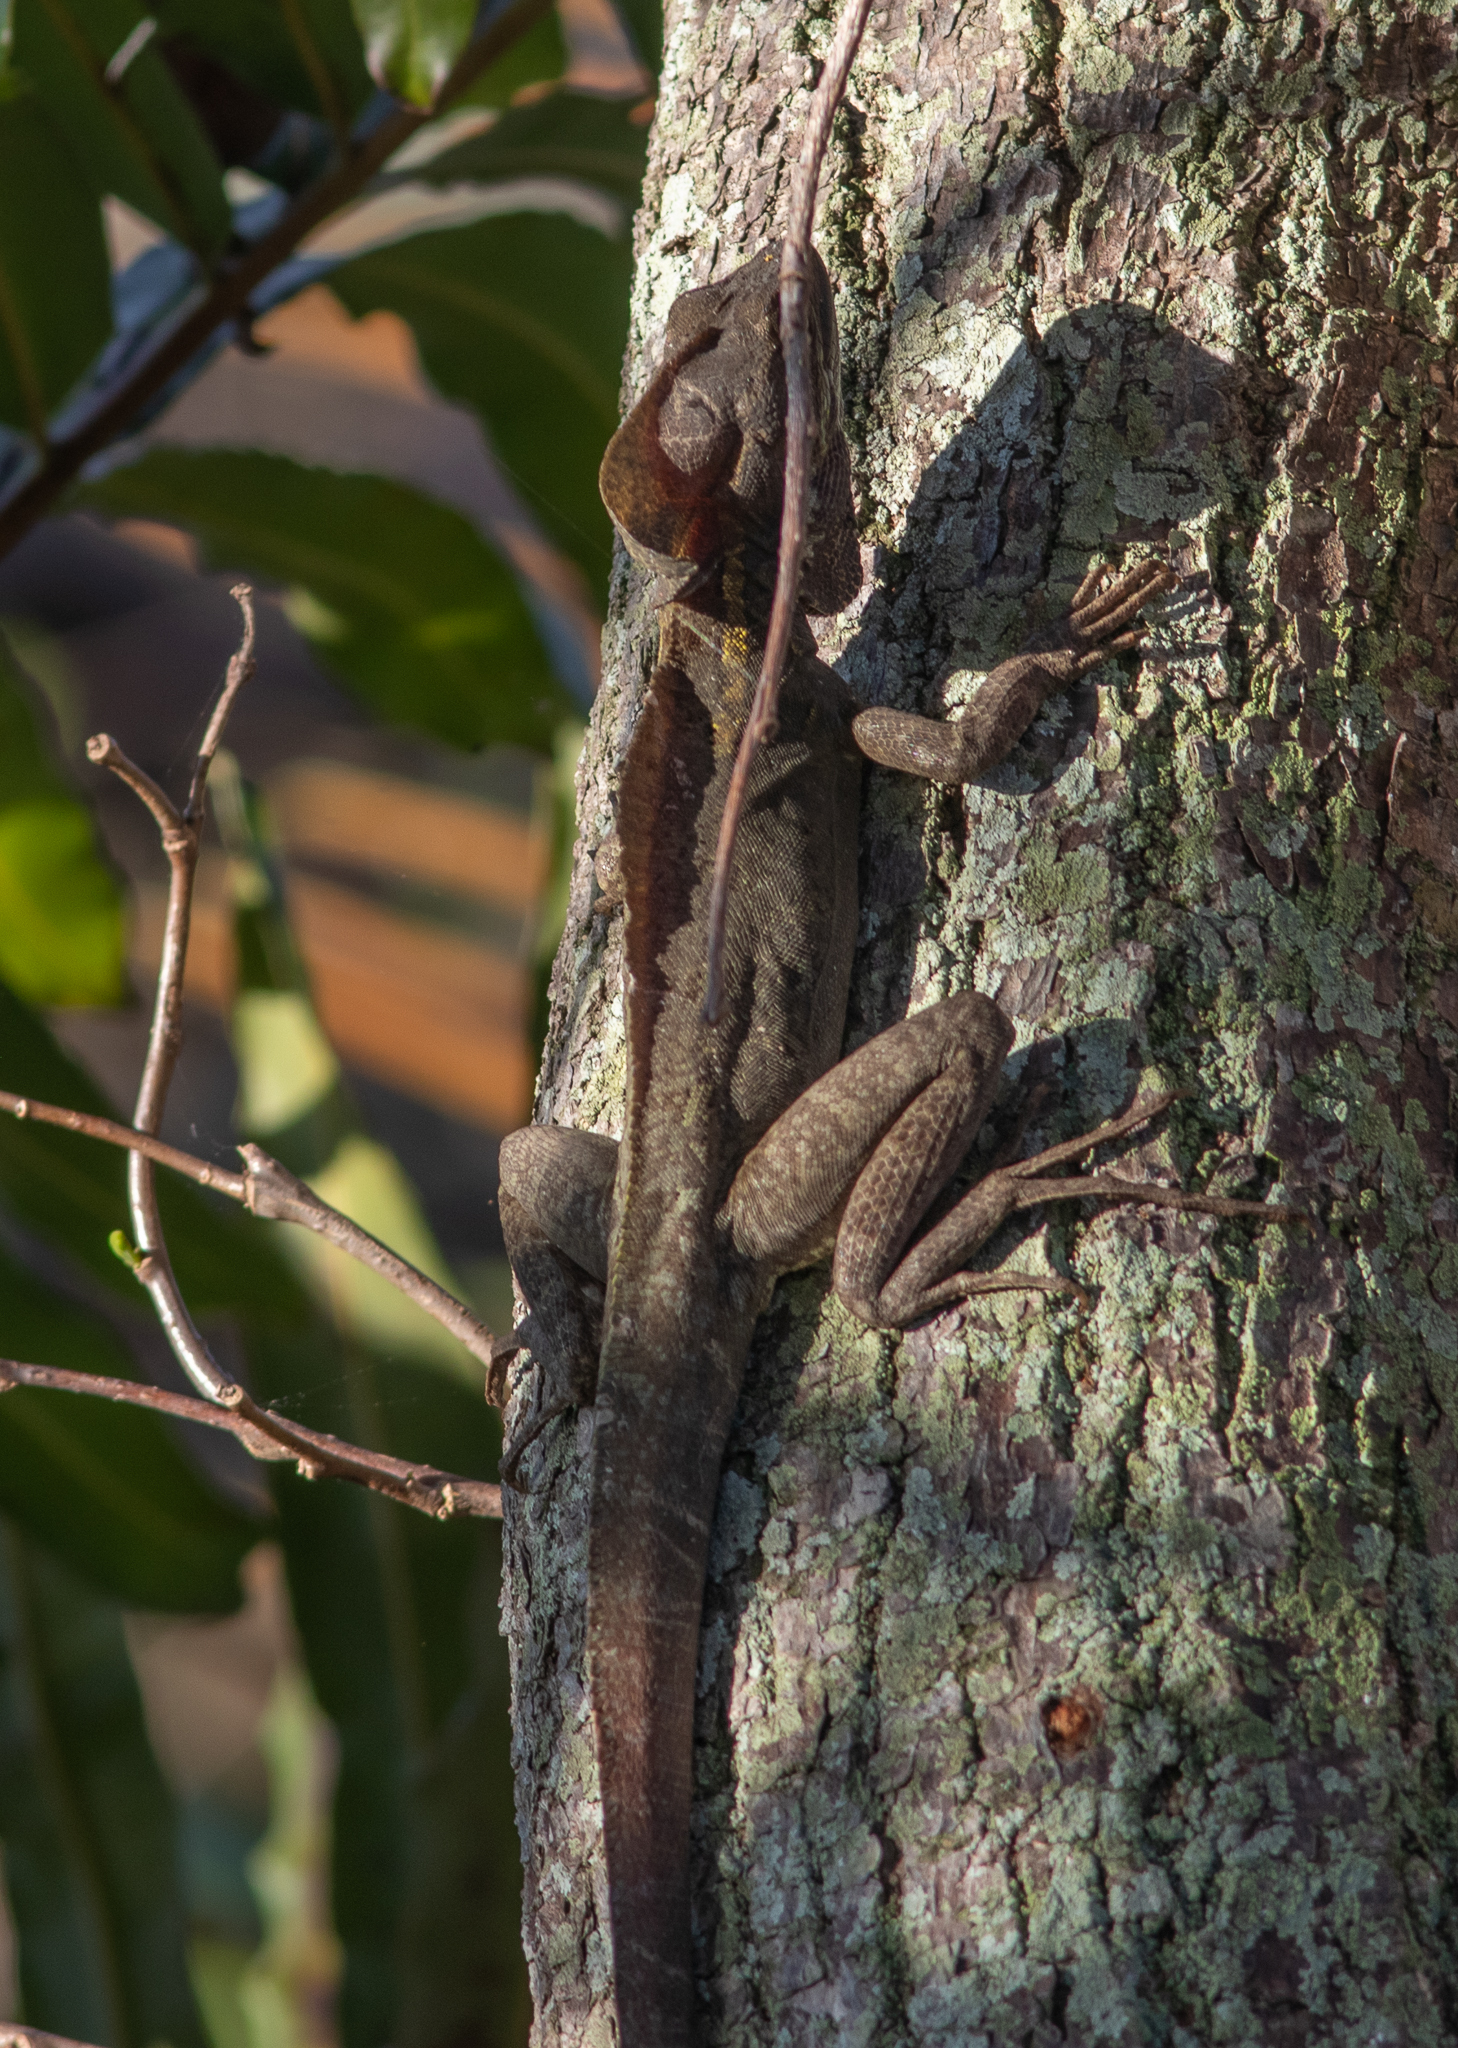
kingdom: Animalia
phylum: Chordata
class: Squamata
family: Corytophanidae
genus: Basiliscus
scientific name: Basiliscus vittatus
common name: Brown basilisk
